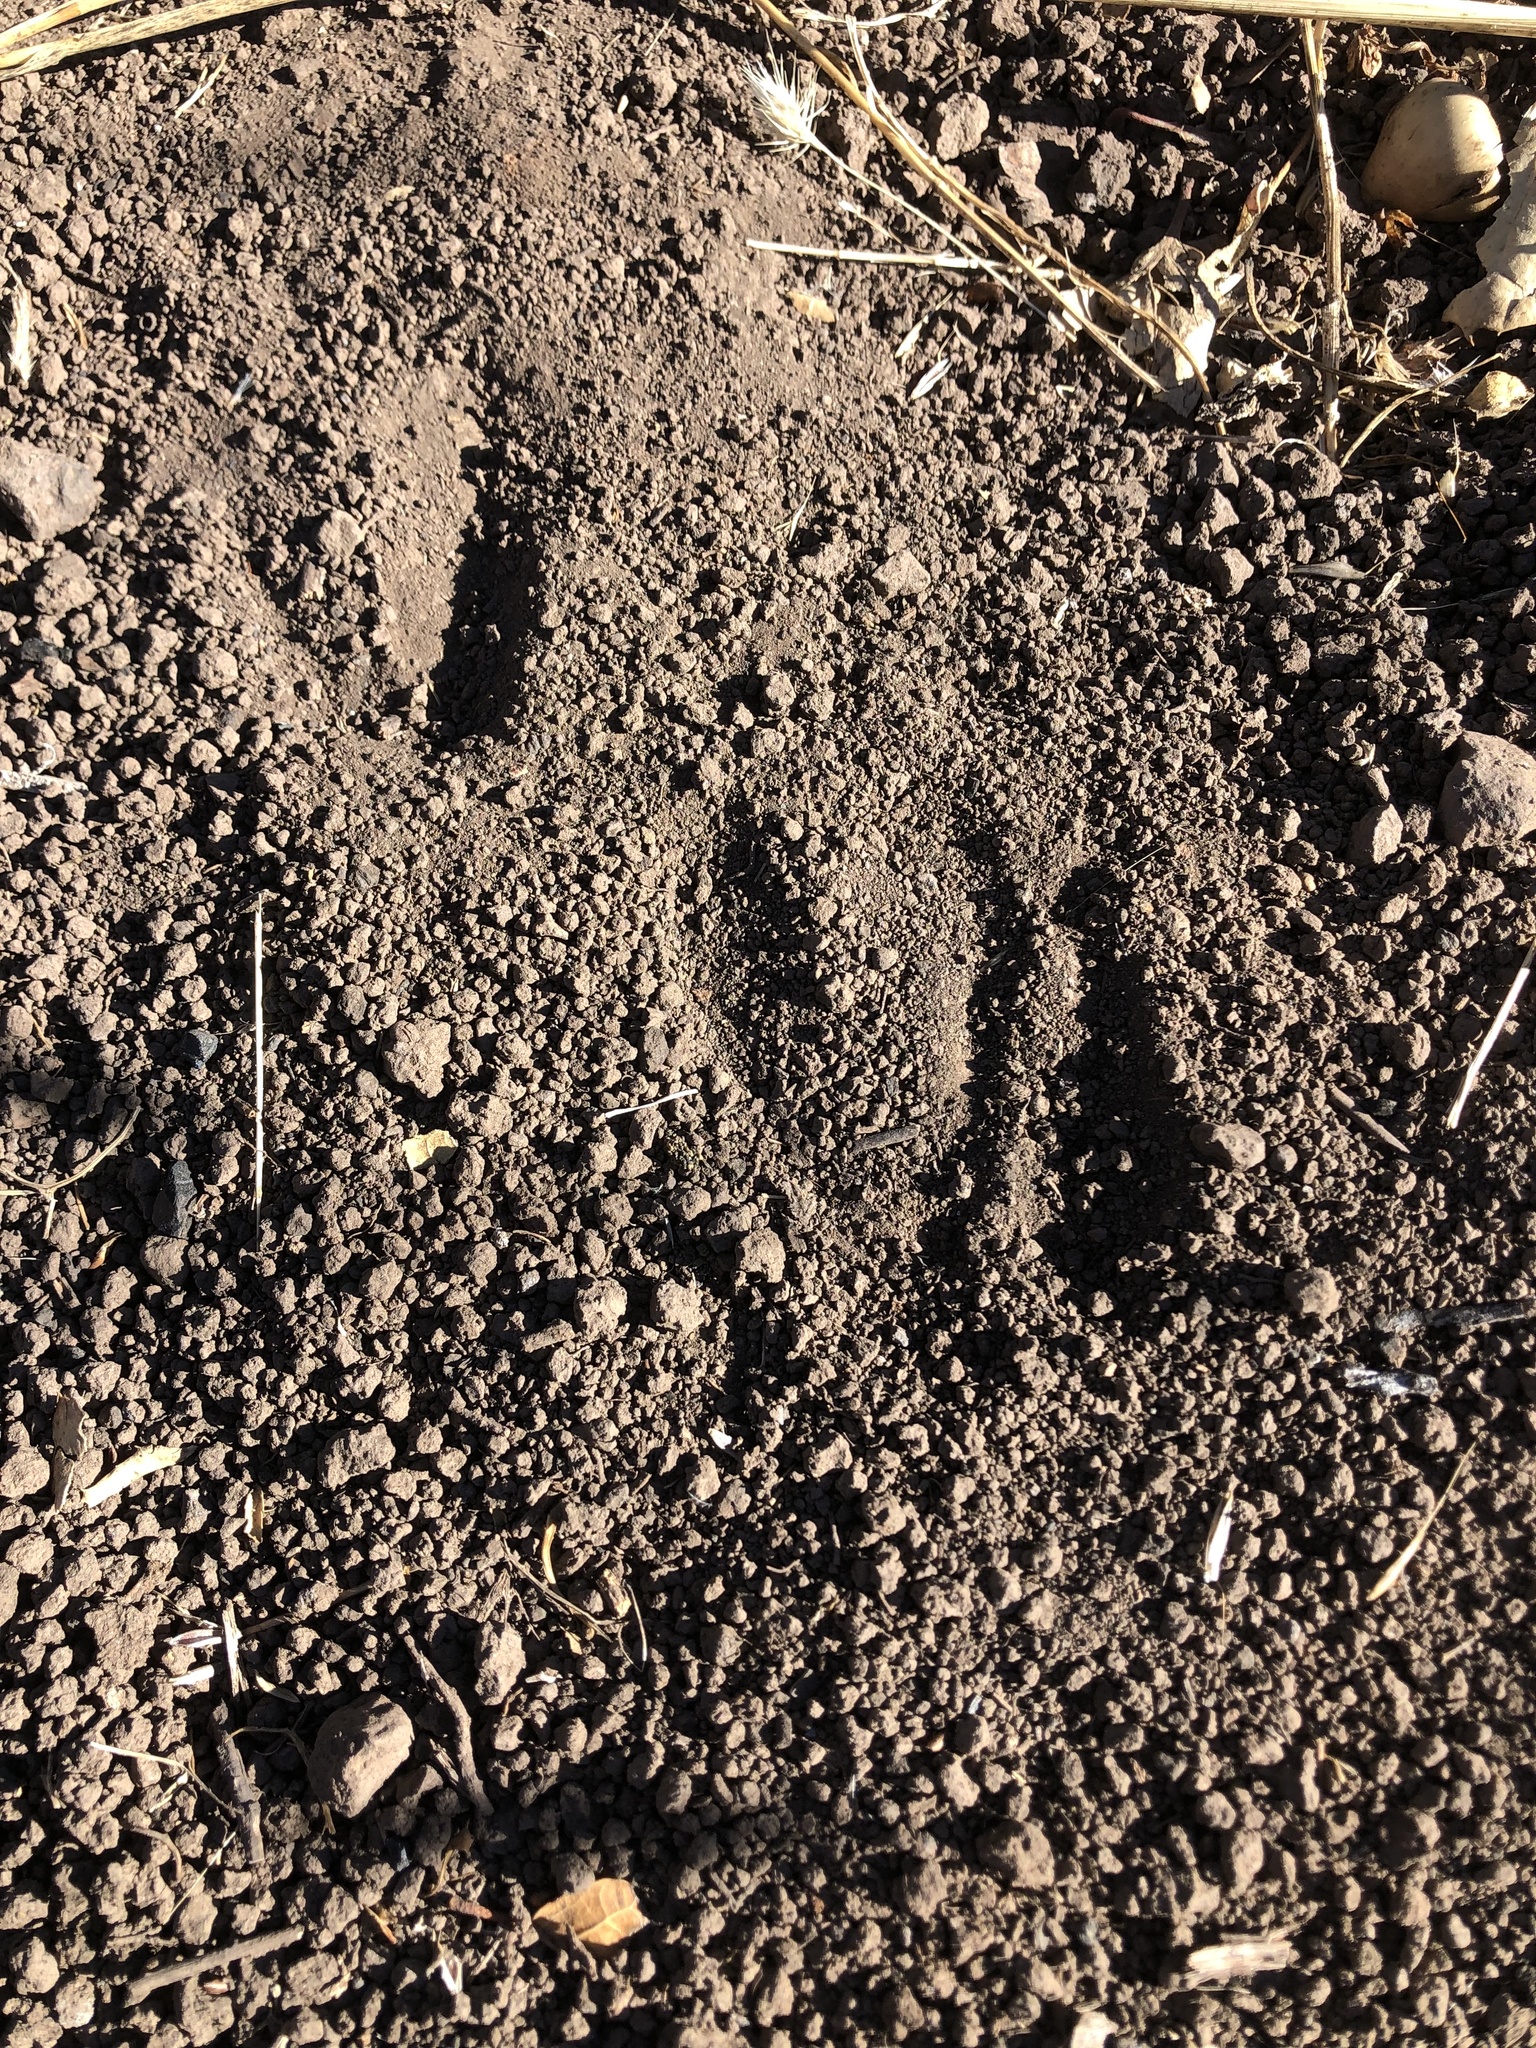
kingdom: Animalia
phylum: Chordata
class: Mammalia
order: Artiodactyla
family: Cervidae
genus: Odocoileus
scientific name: Odocoileus hemionus
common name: Mule deer
